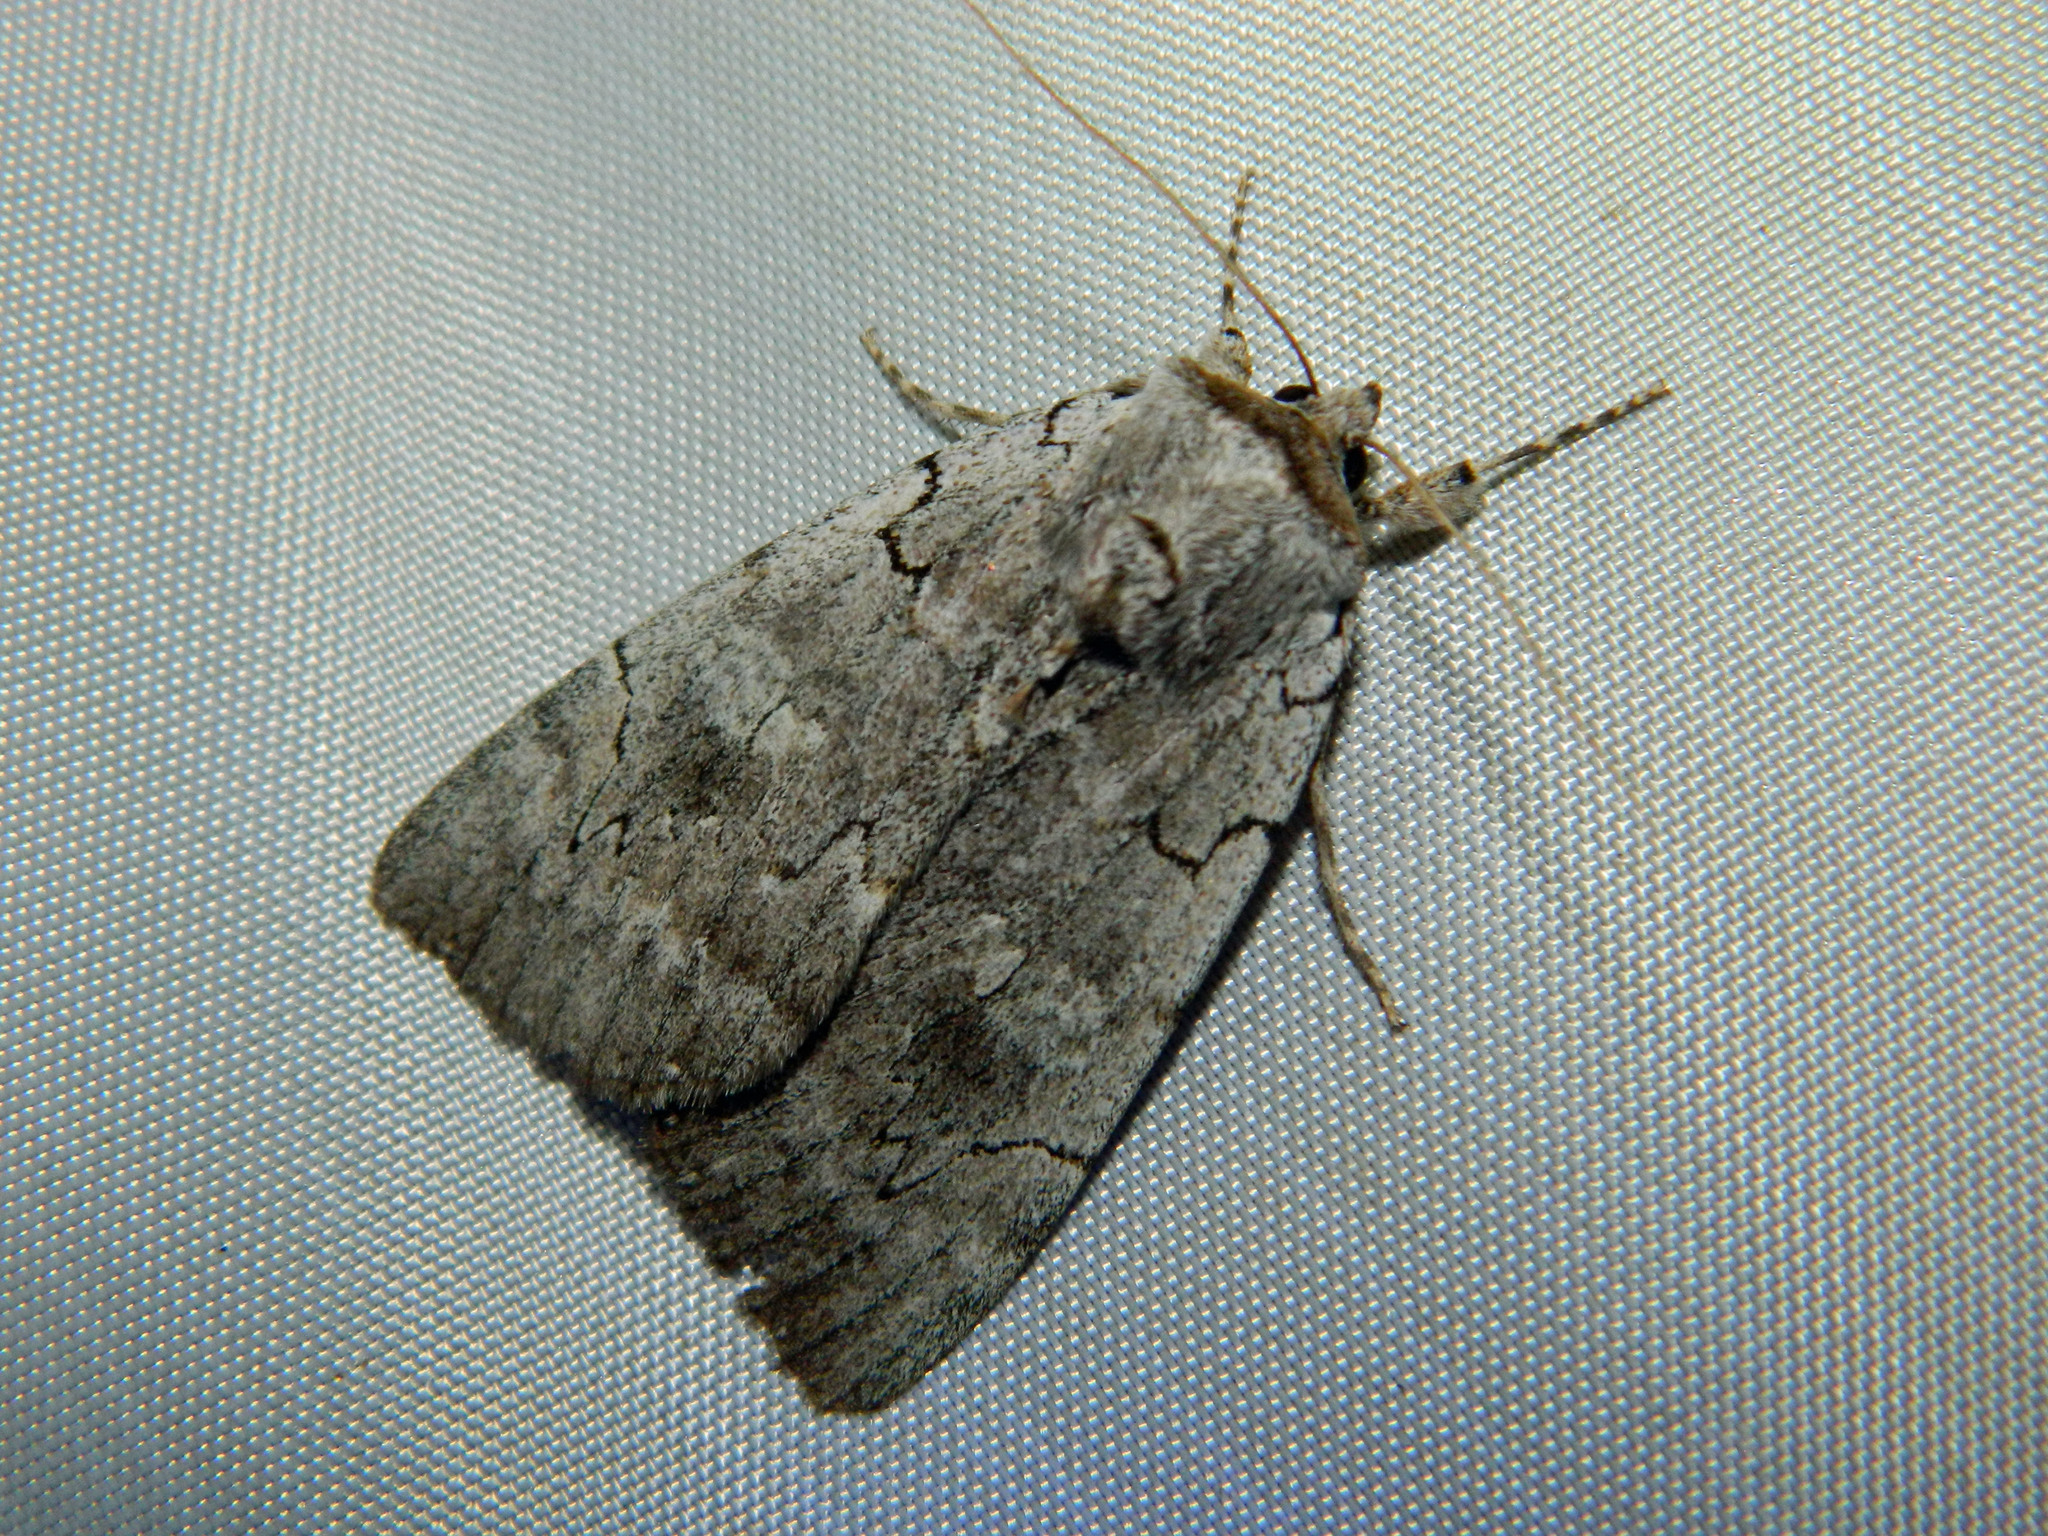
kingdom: Animalia
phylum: Arthropoda
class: Insecta
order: Lepidoptera
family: Erebidae
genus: Catocala
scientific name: Catocala concumbens
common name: Pink underwing
